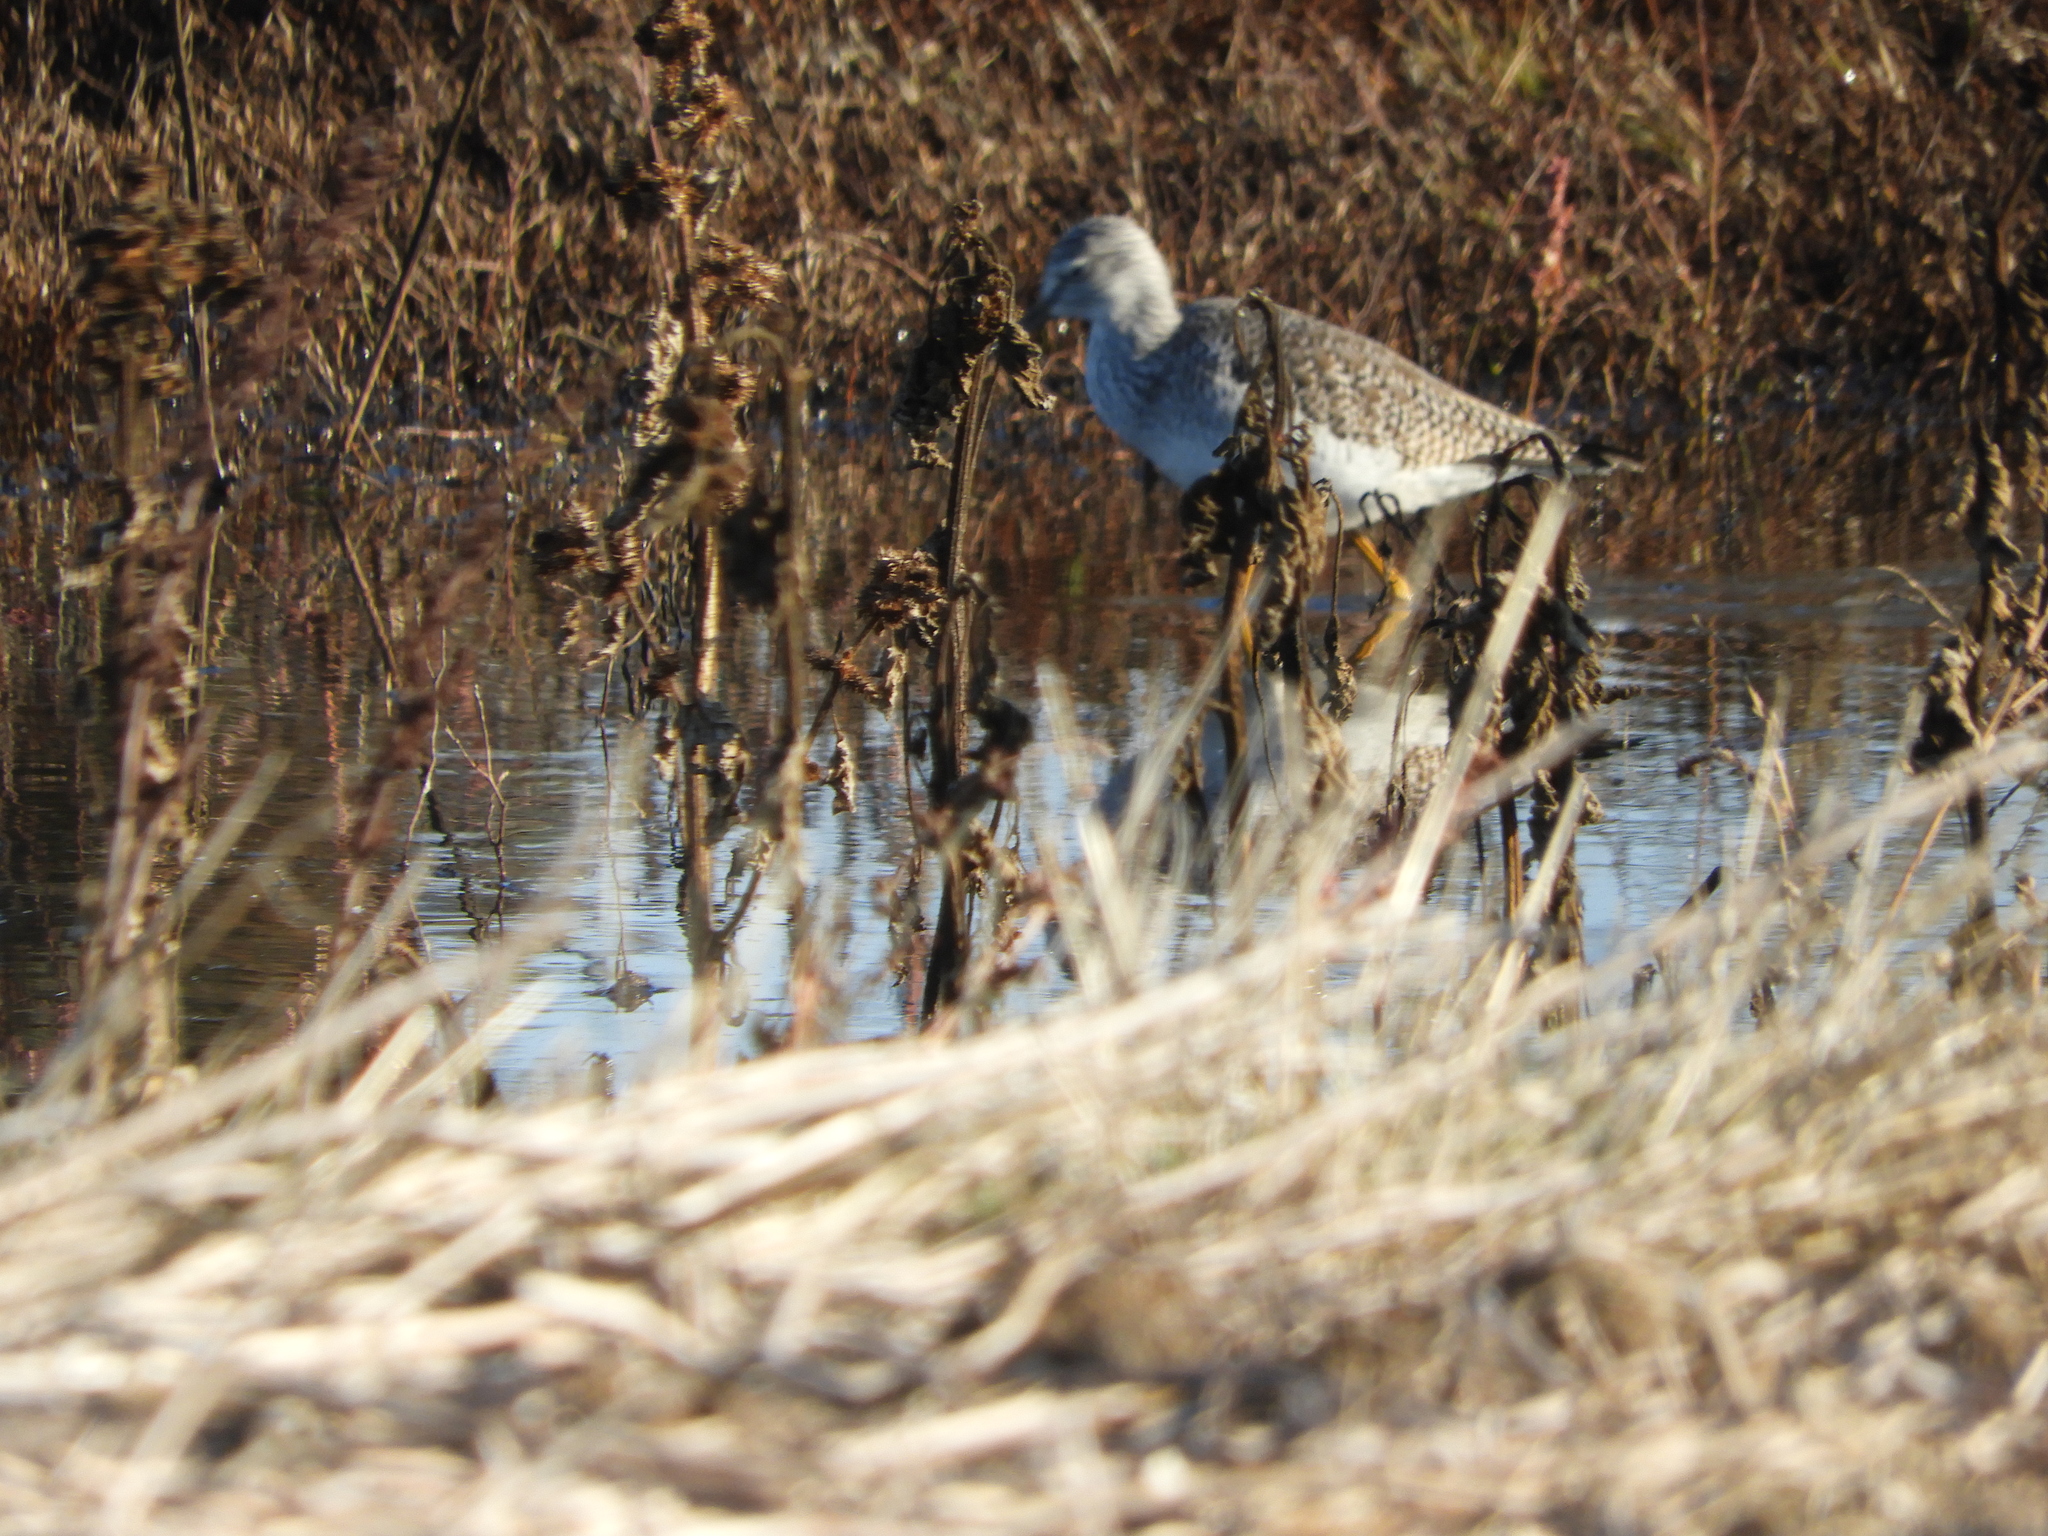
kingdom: Animalia
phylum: Chordata
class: Aves
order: Charadriiformes
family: Scolopacidae
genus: Tringa
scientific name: Tringa melanoleuca
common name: Greater yellowlegs
